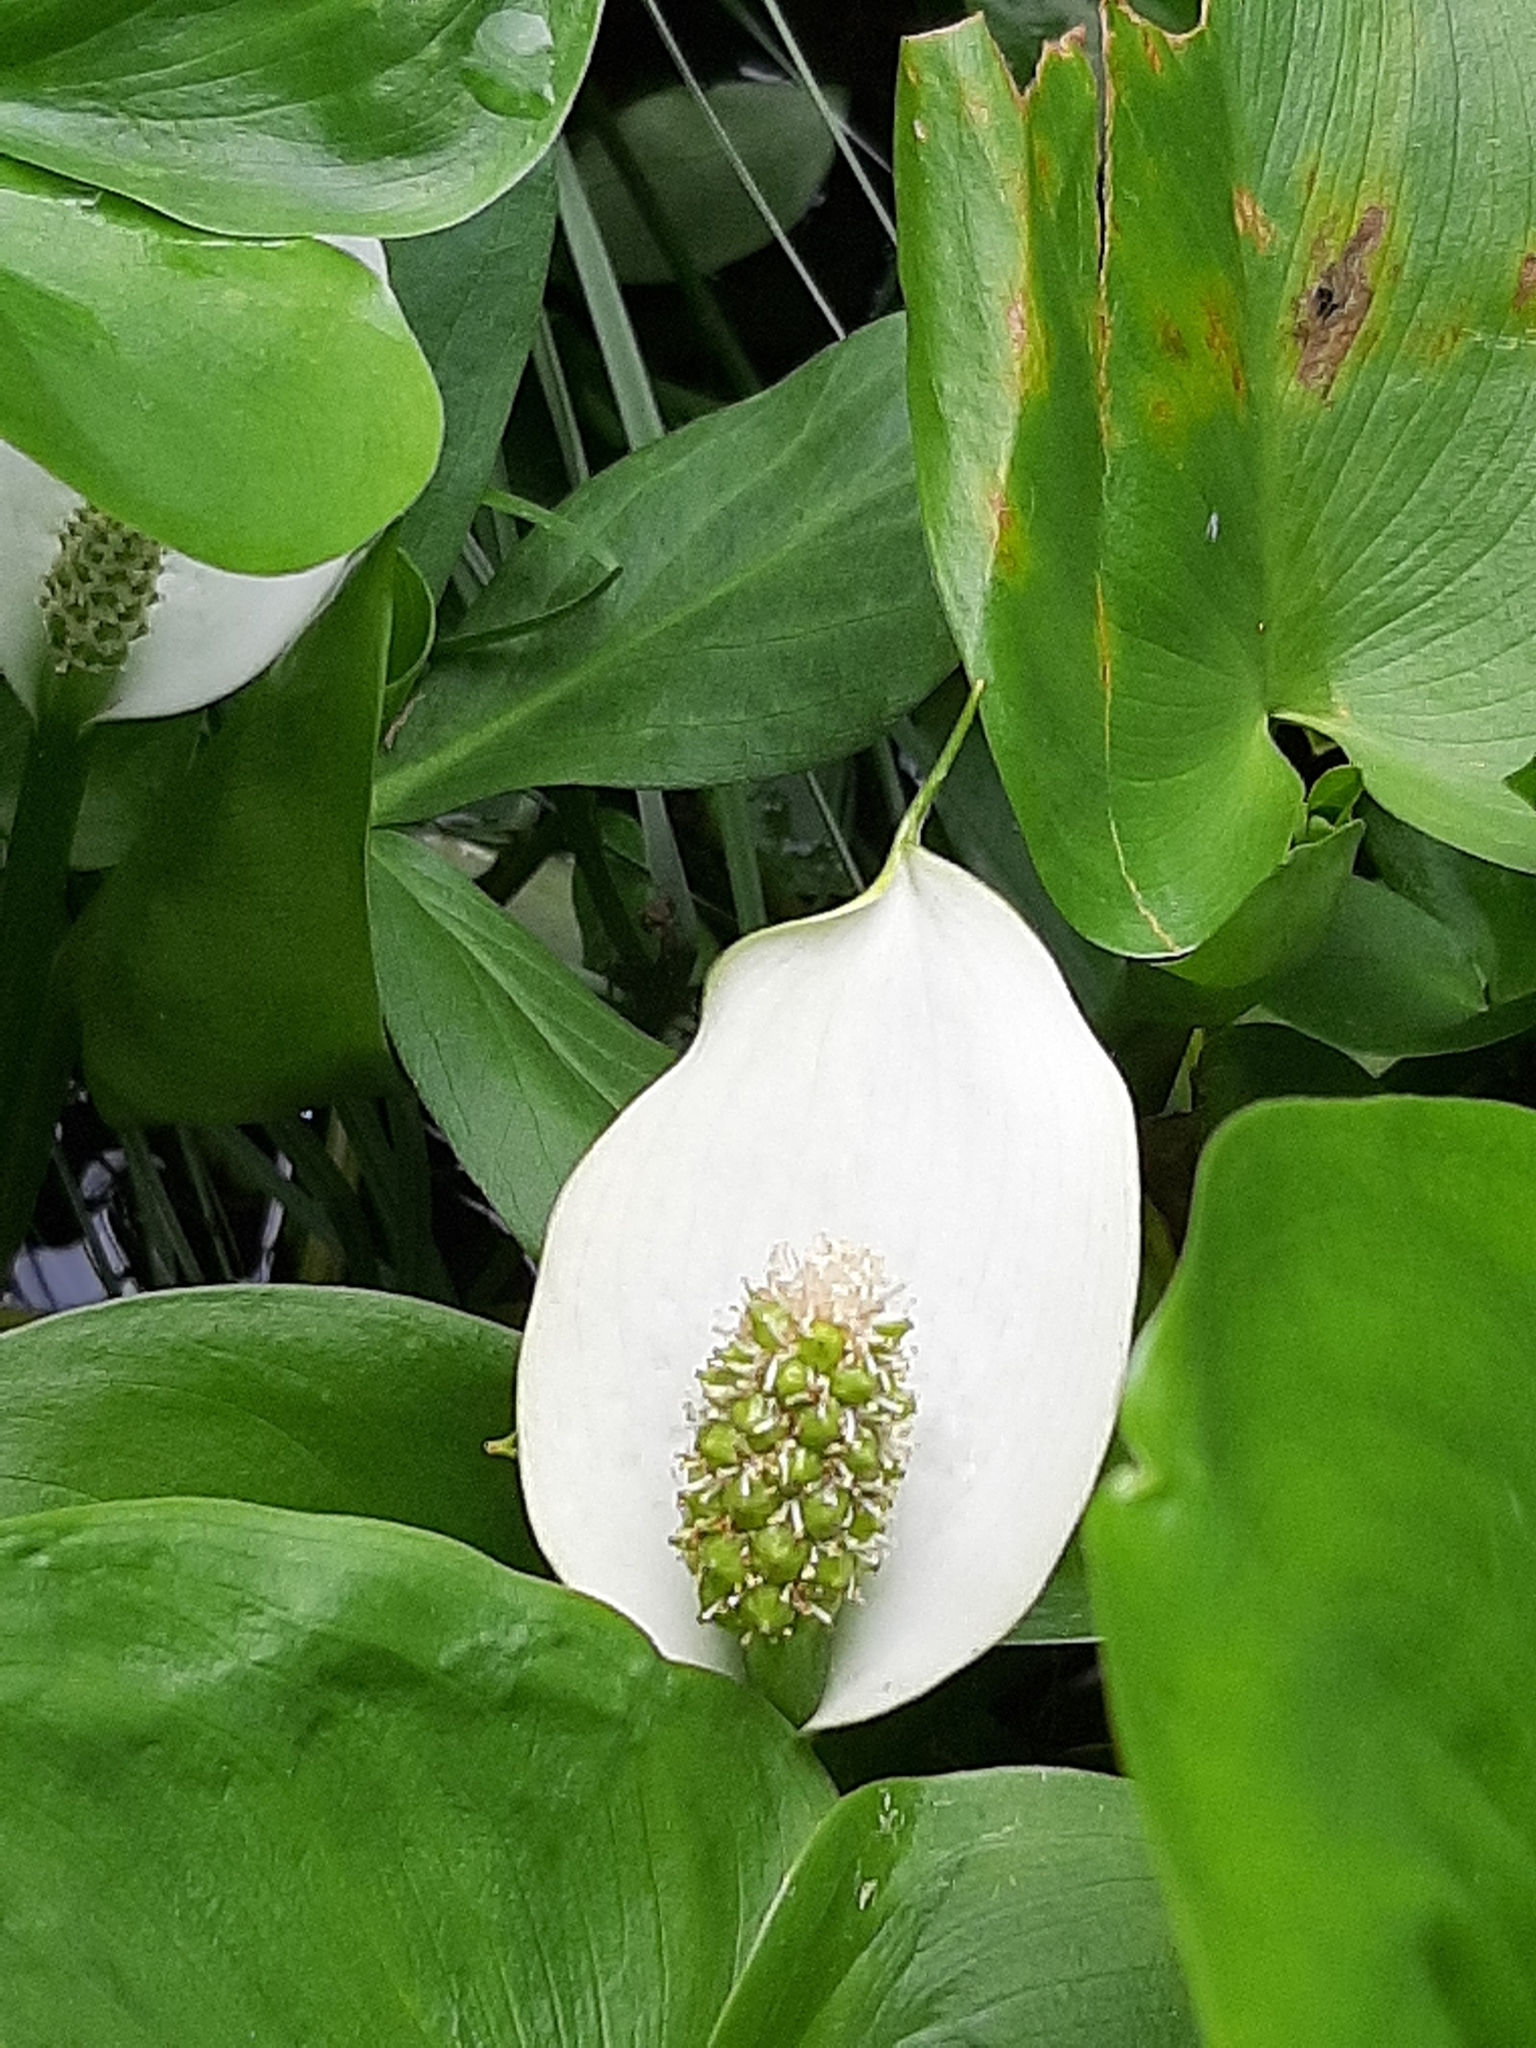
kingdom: Plantae
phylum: Tracheophyta
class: Liliopsida
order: Alismatales
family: Araceae
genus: Calla
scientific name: Calla palustris
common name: Bog arum
